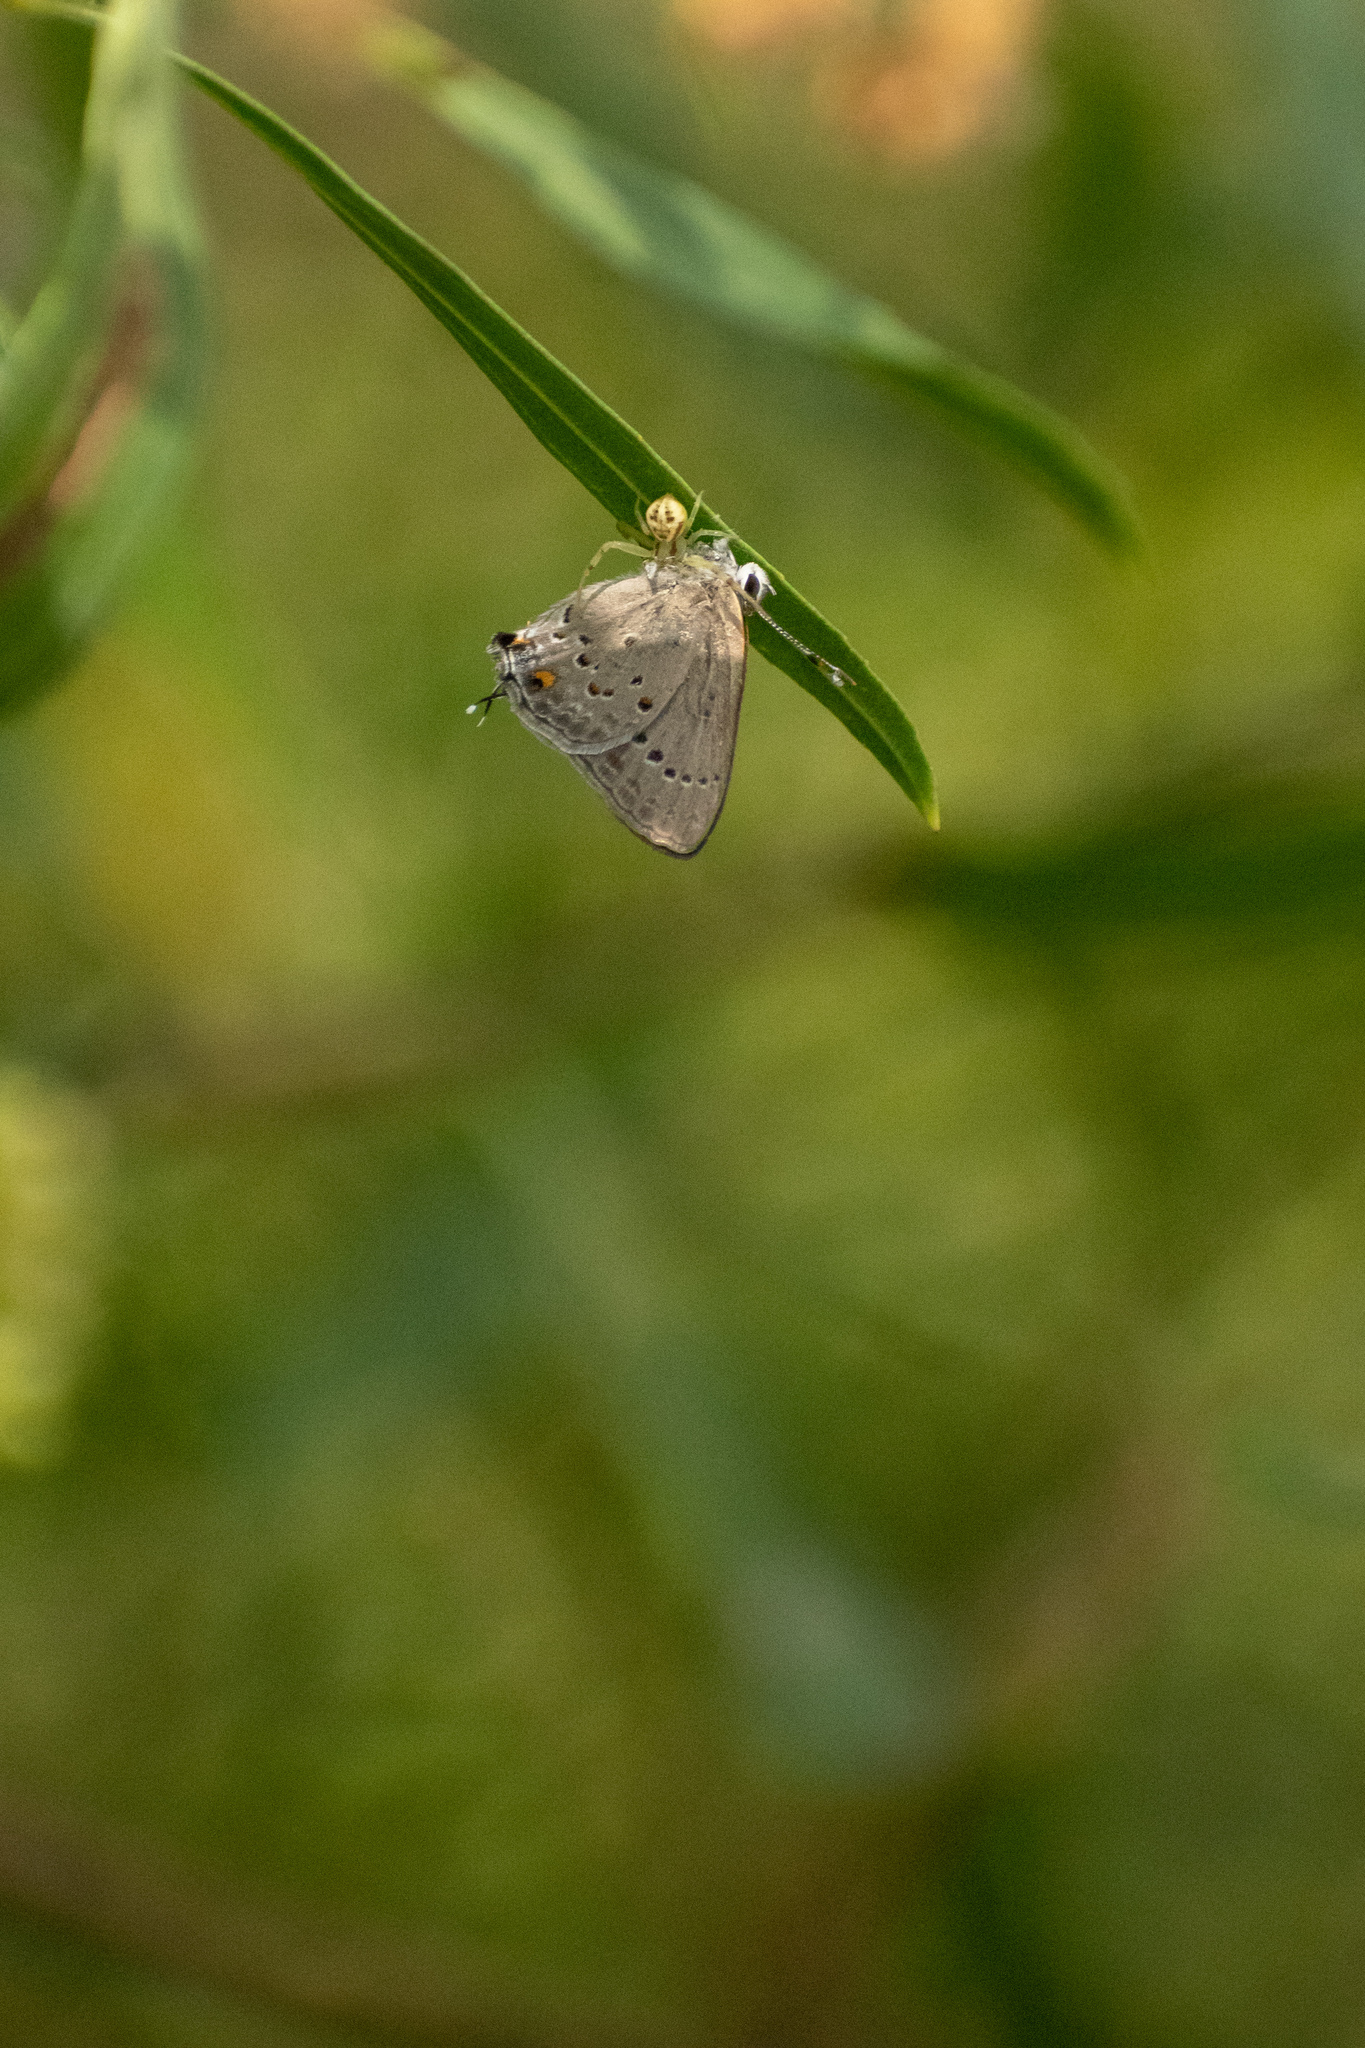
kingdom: Animalia
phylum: Arthropoda
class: Arachnida
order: Araneae
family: Thomisidae
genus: Misumenops
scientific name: Misumenops
